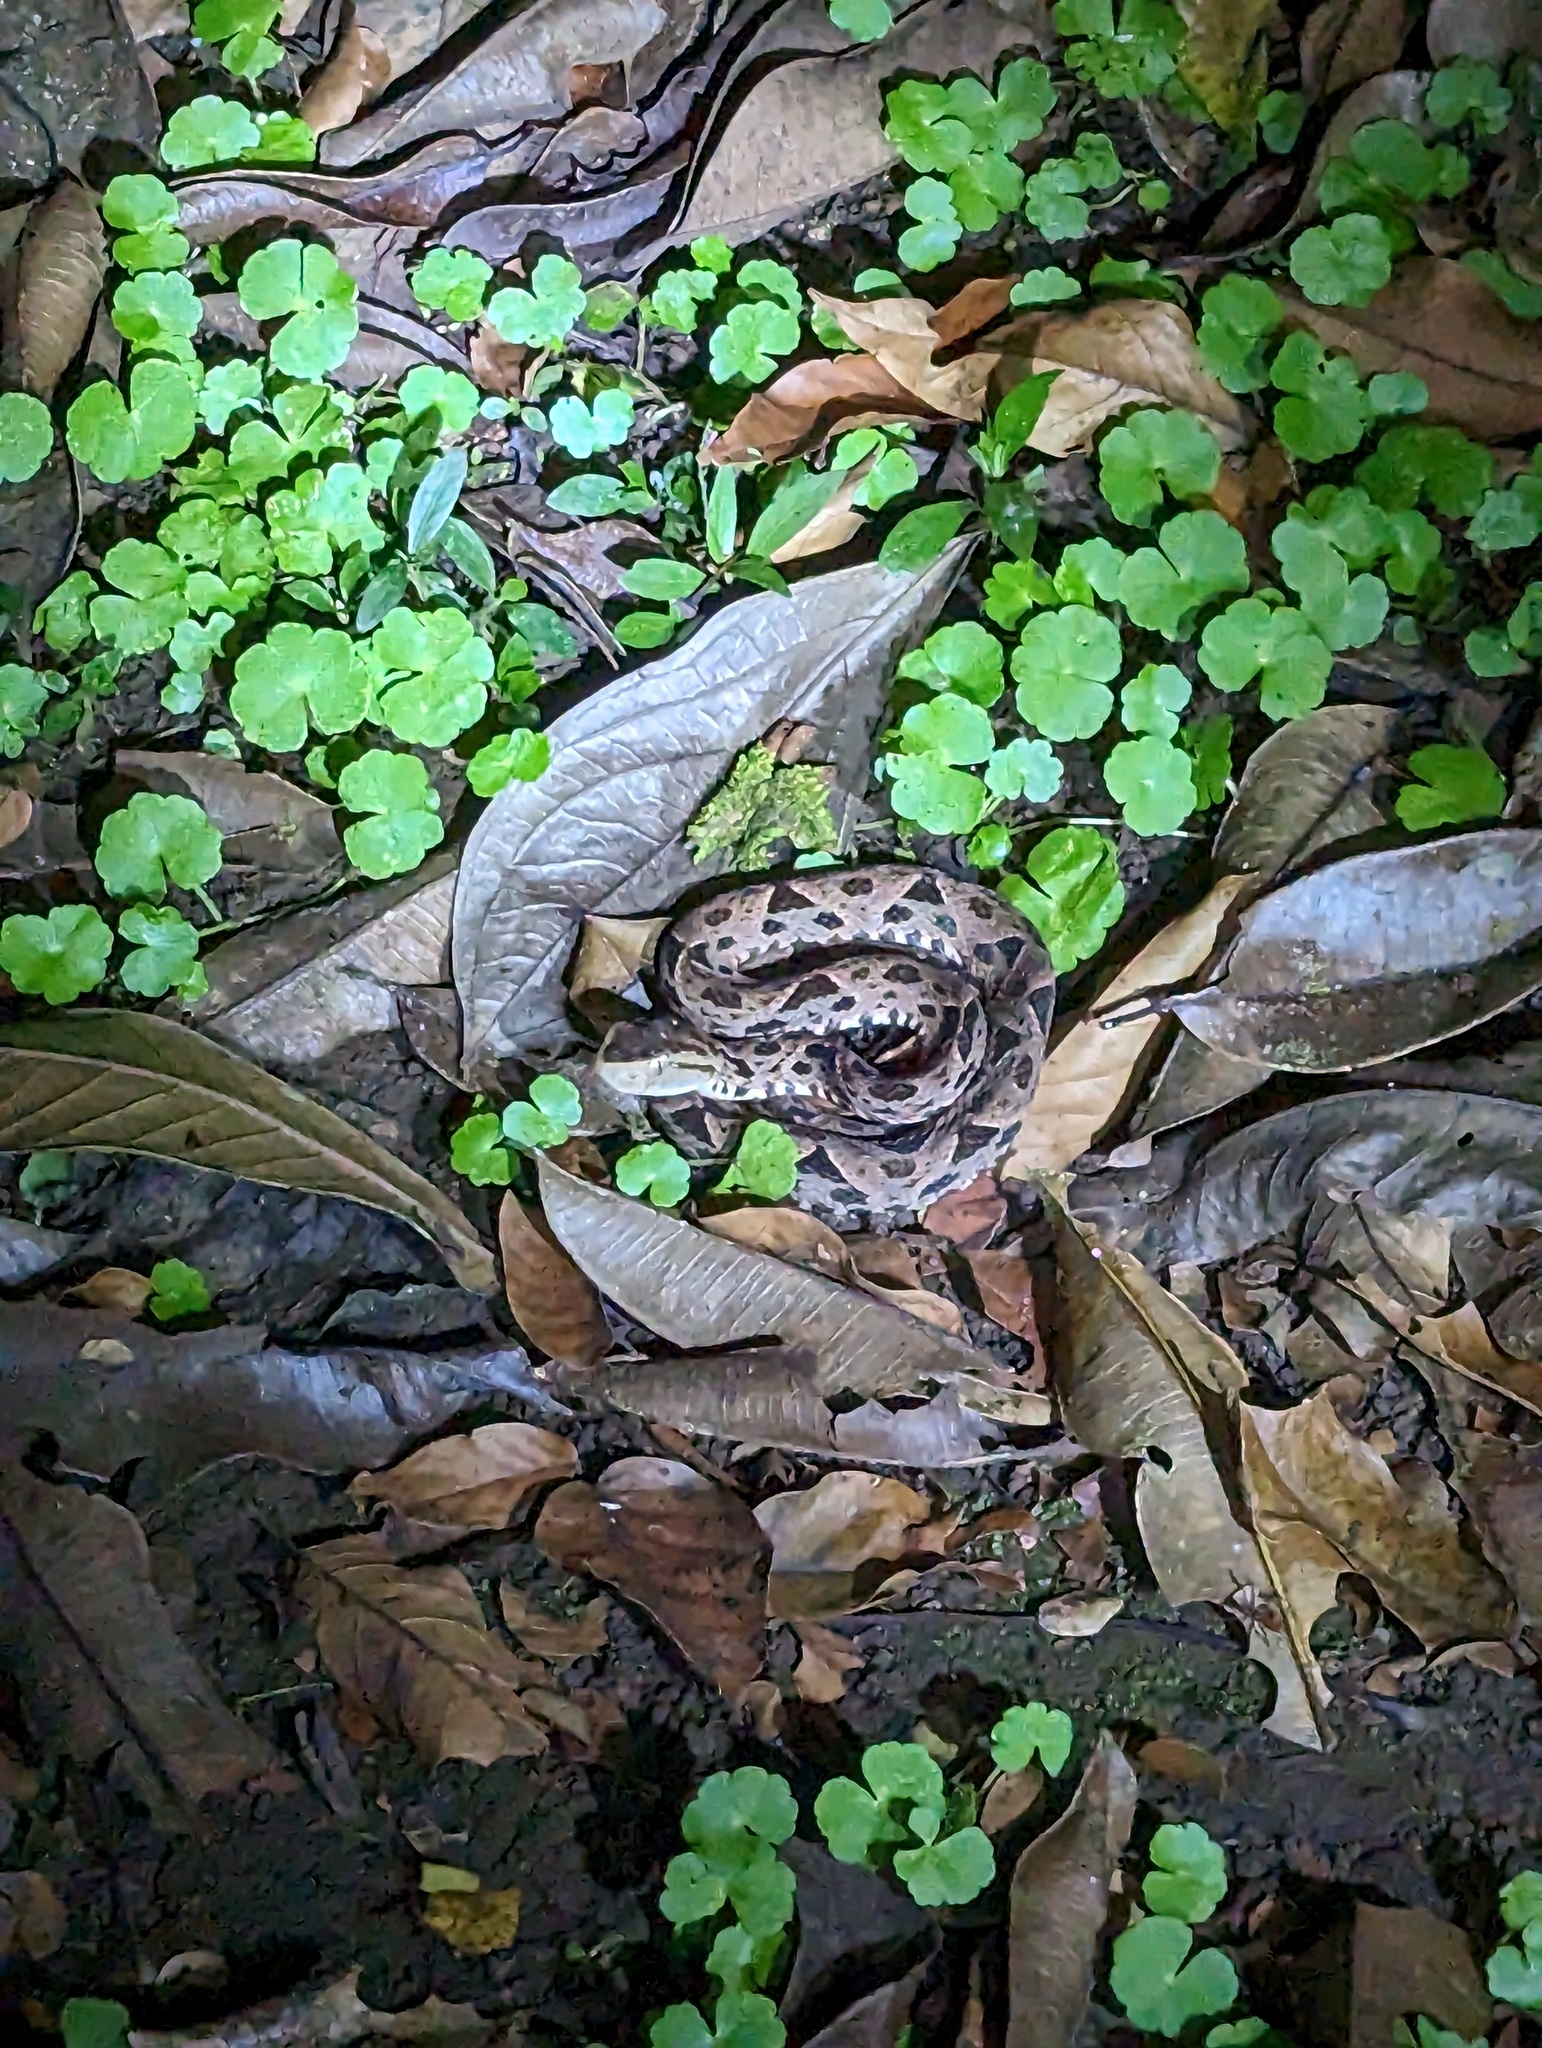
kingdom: Animalia
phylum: Chordata
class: Squamata
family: Viperidae
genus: Bothrops
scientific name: Bothrops asper
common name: Terciopelo
